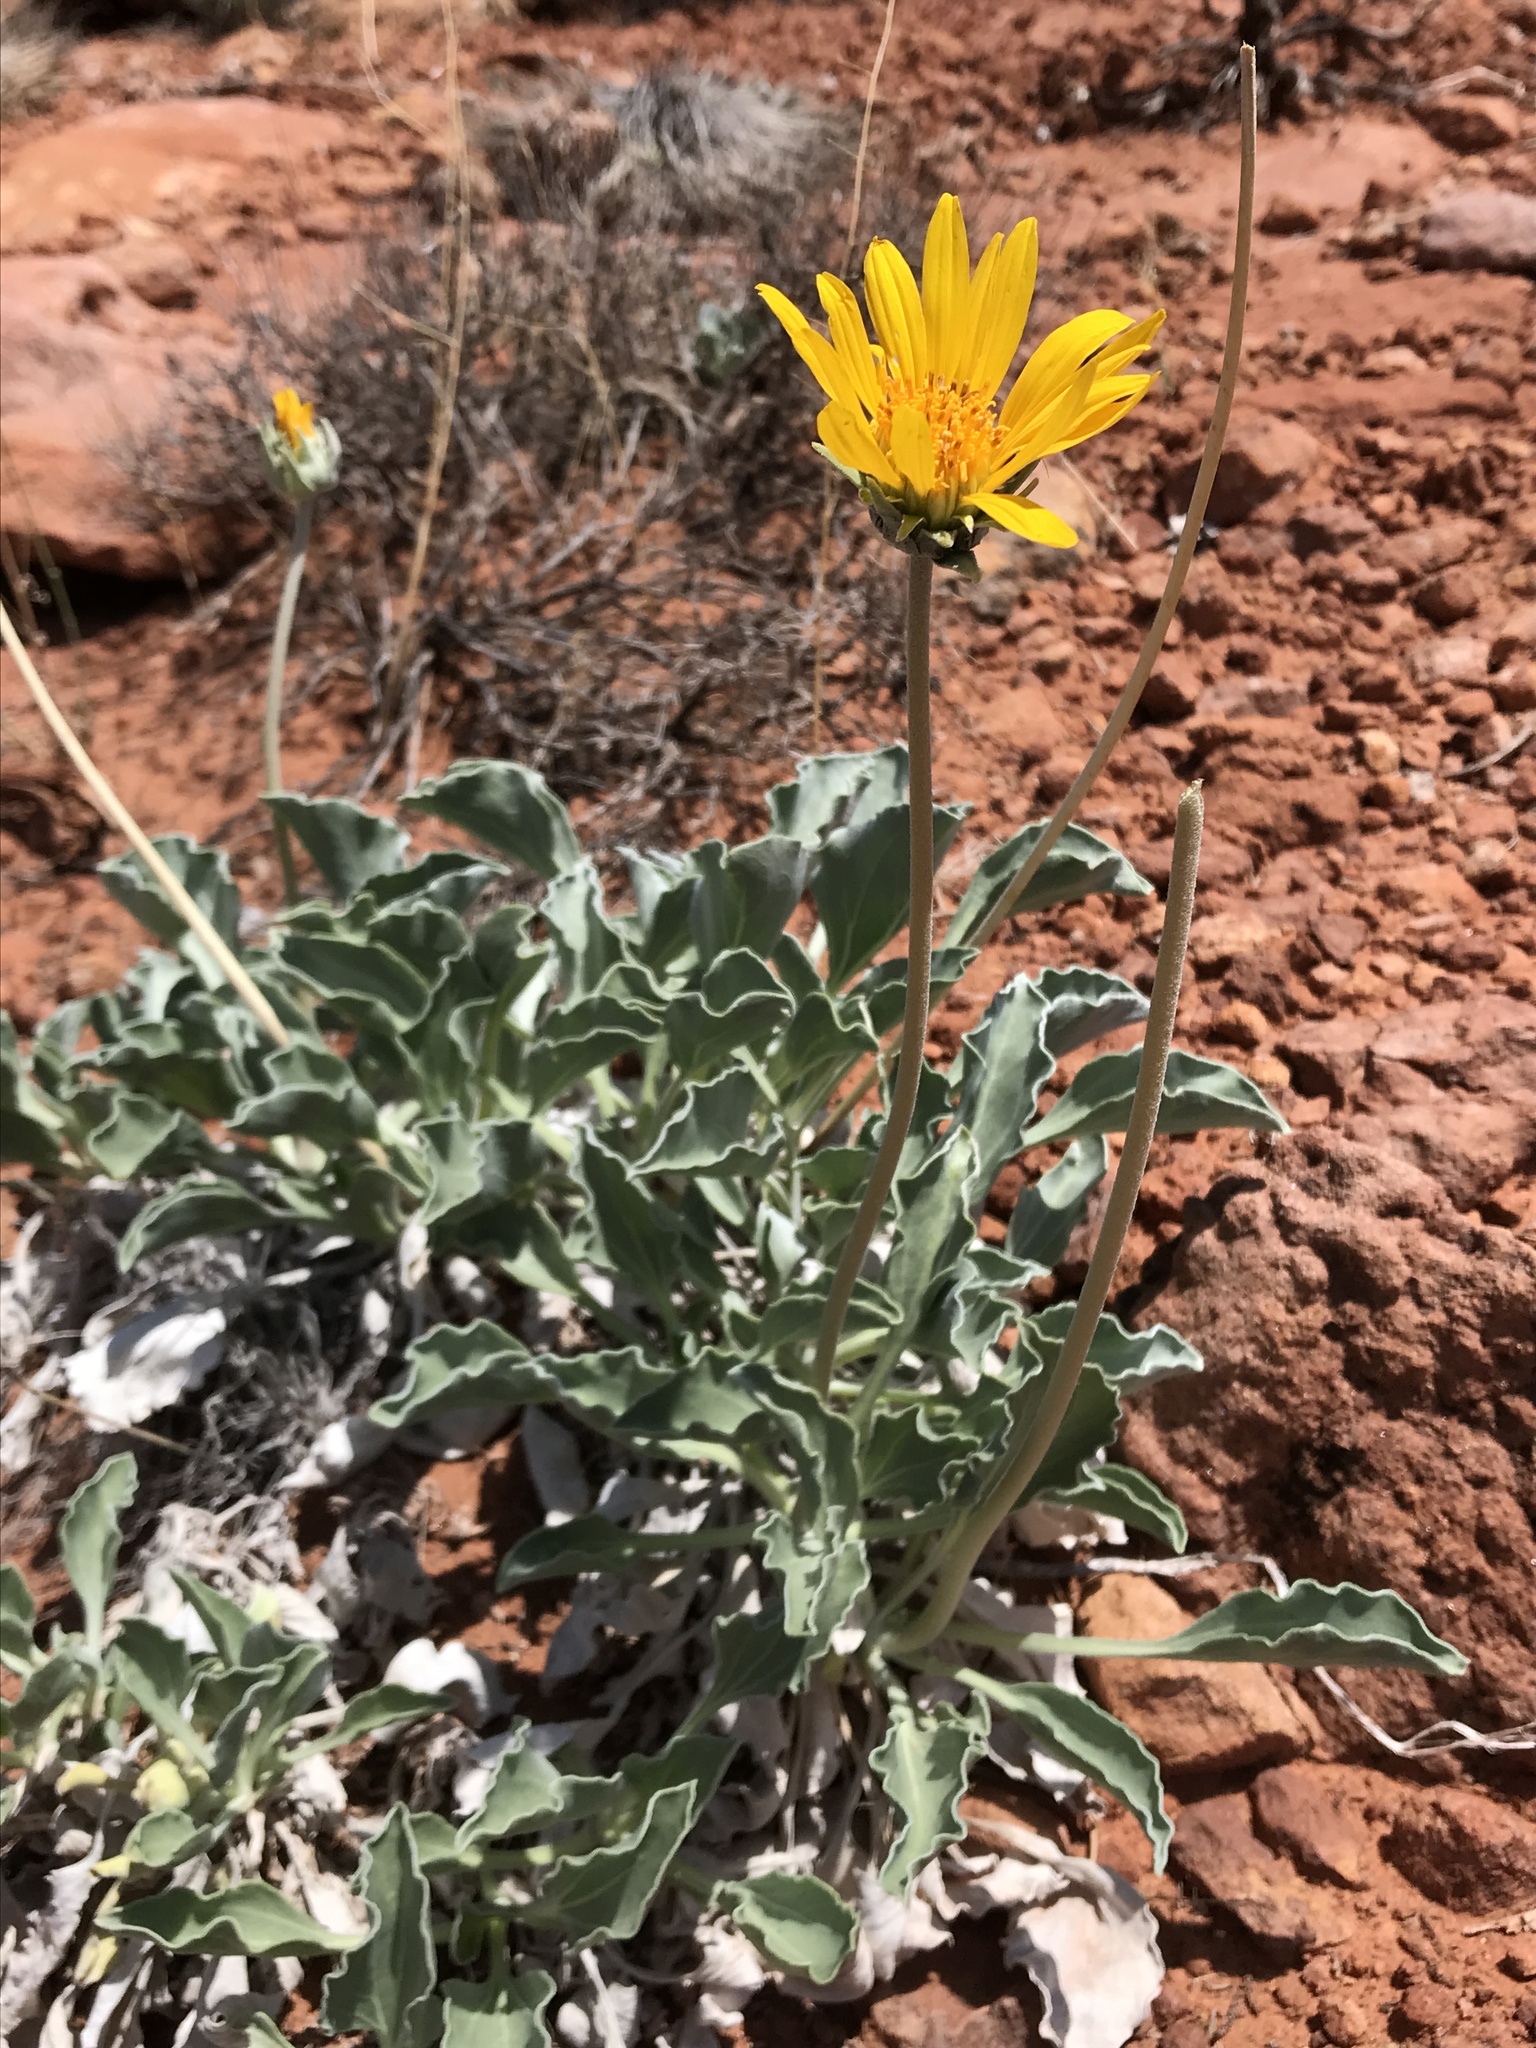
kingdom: Plantae
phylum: Tracheophyta
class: Magnoliopsida
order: Asterales
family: Asteraceae
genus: Enceliopsis
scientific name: Enceliopsis nudicaulis
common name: Naked-stem daisy
